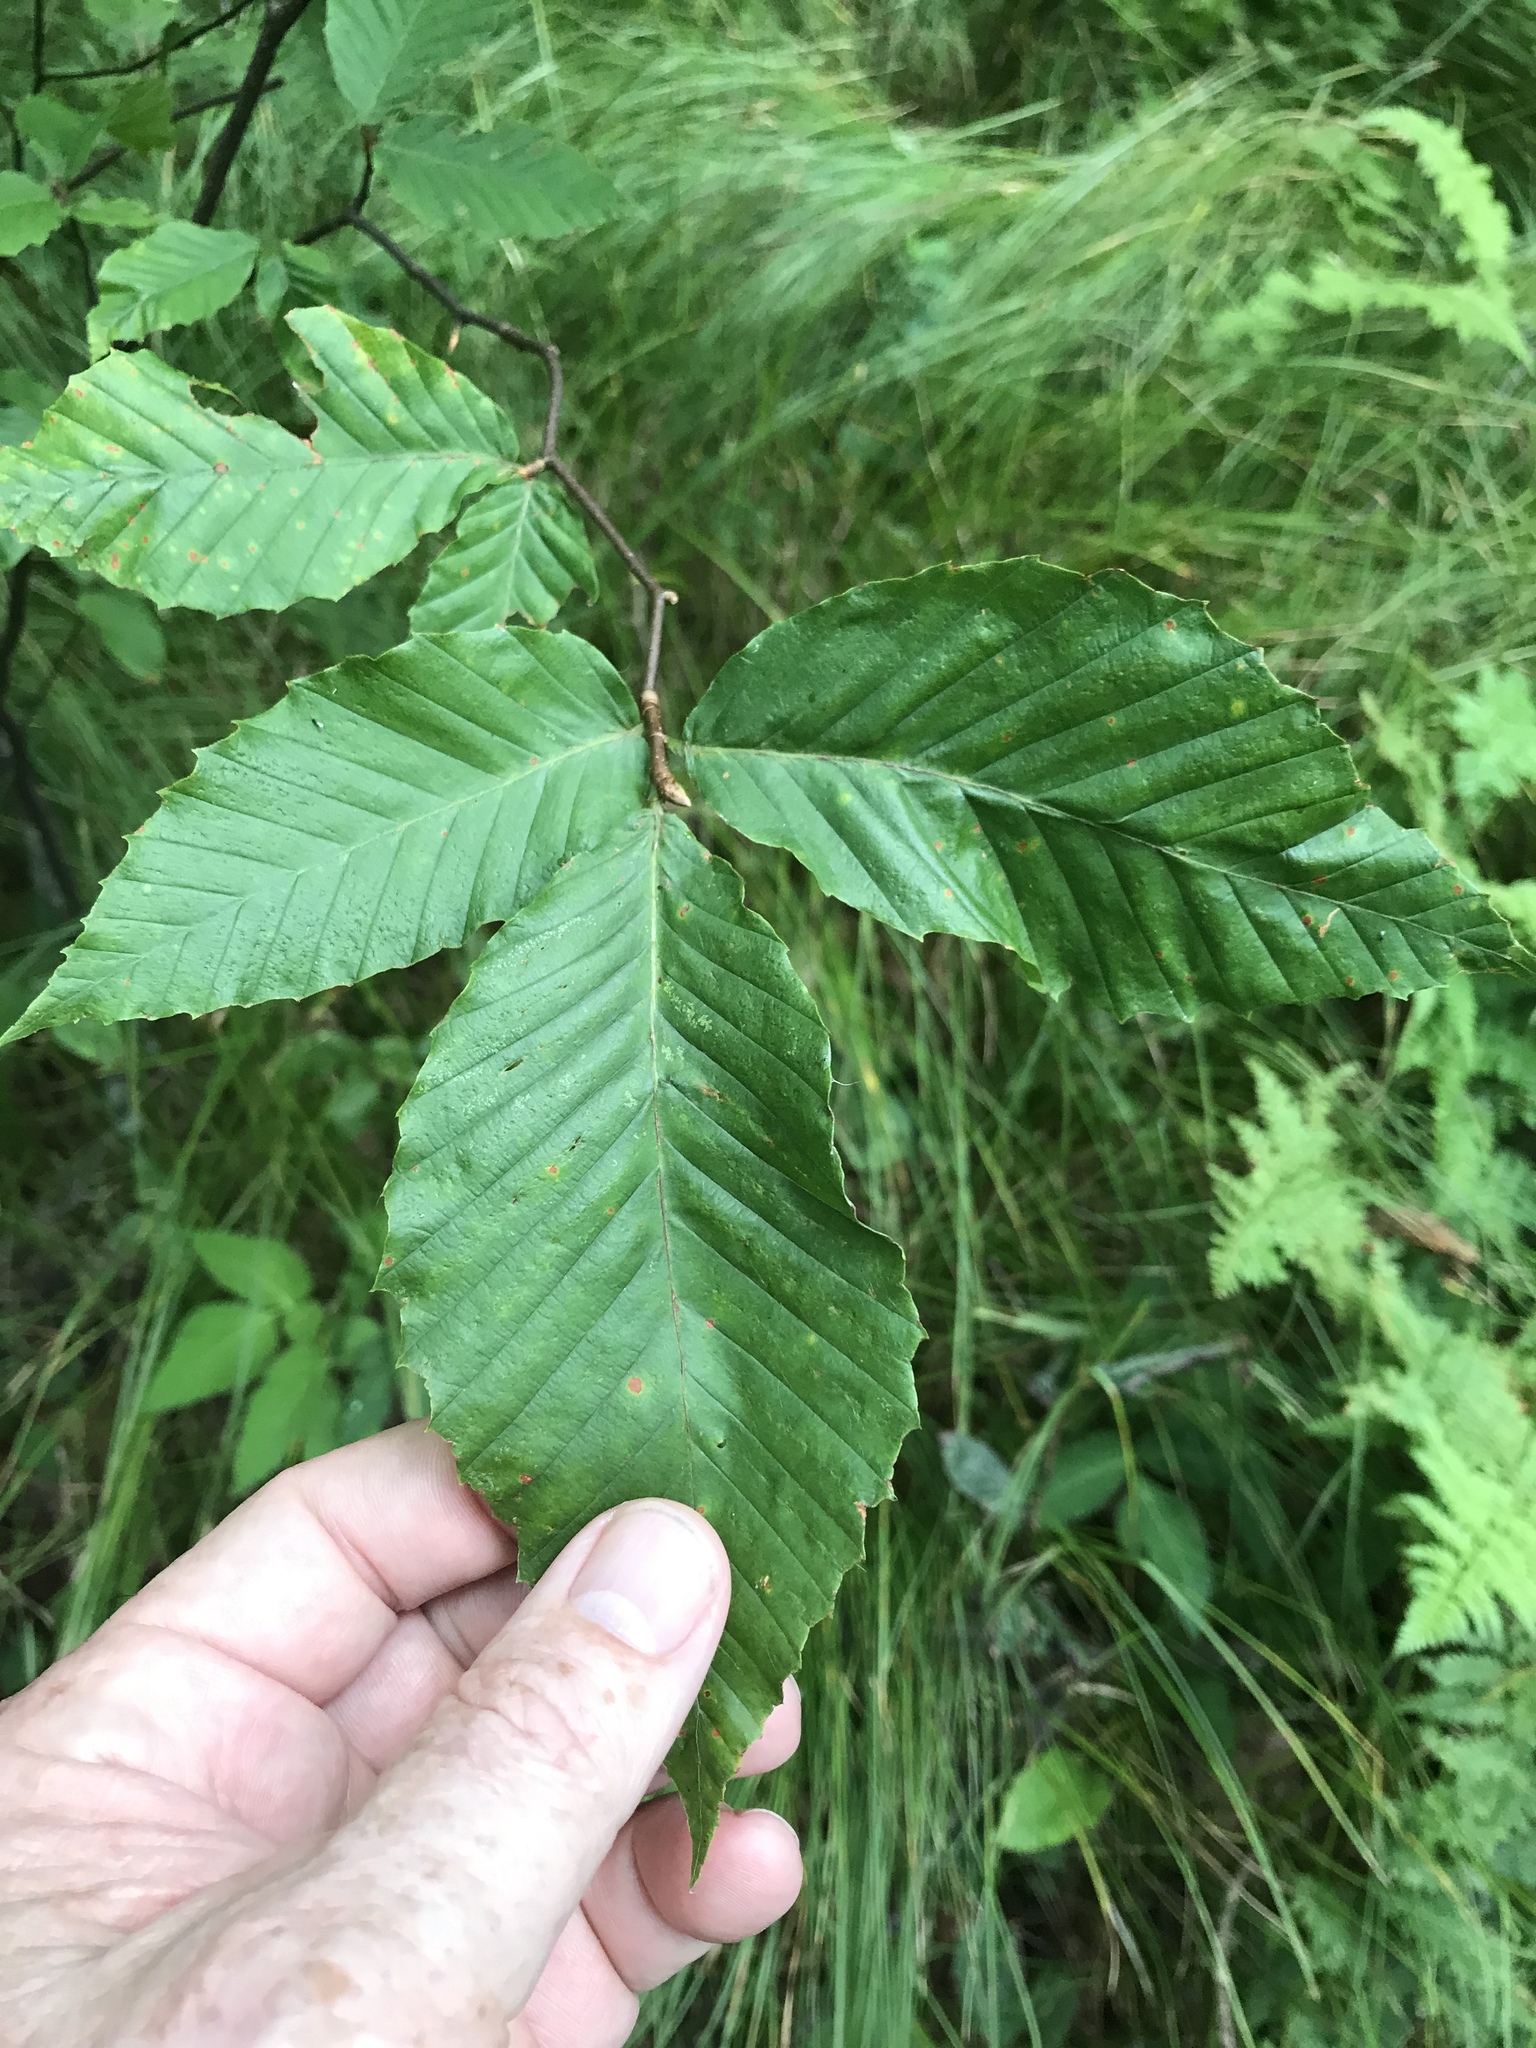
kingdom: Plantae
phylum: Tracheophyta
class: Magnoliopsida
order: Fagales
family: Fagaceae
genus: Fagus
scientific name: Fagus grandifolia
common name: American beech
